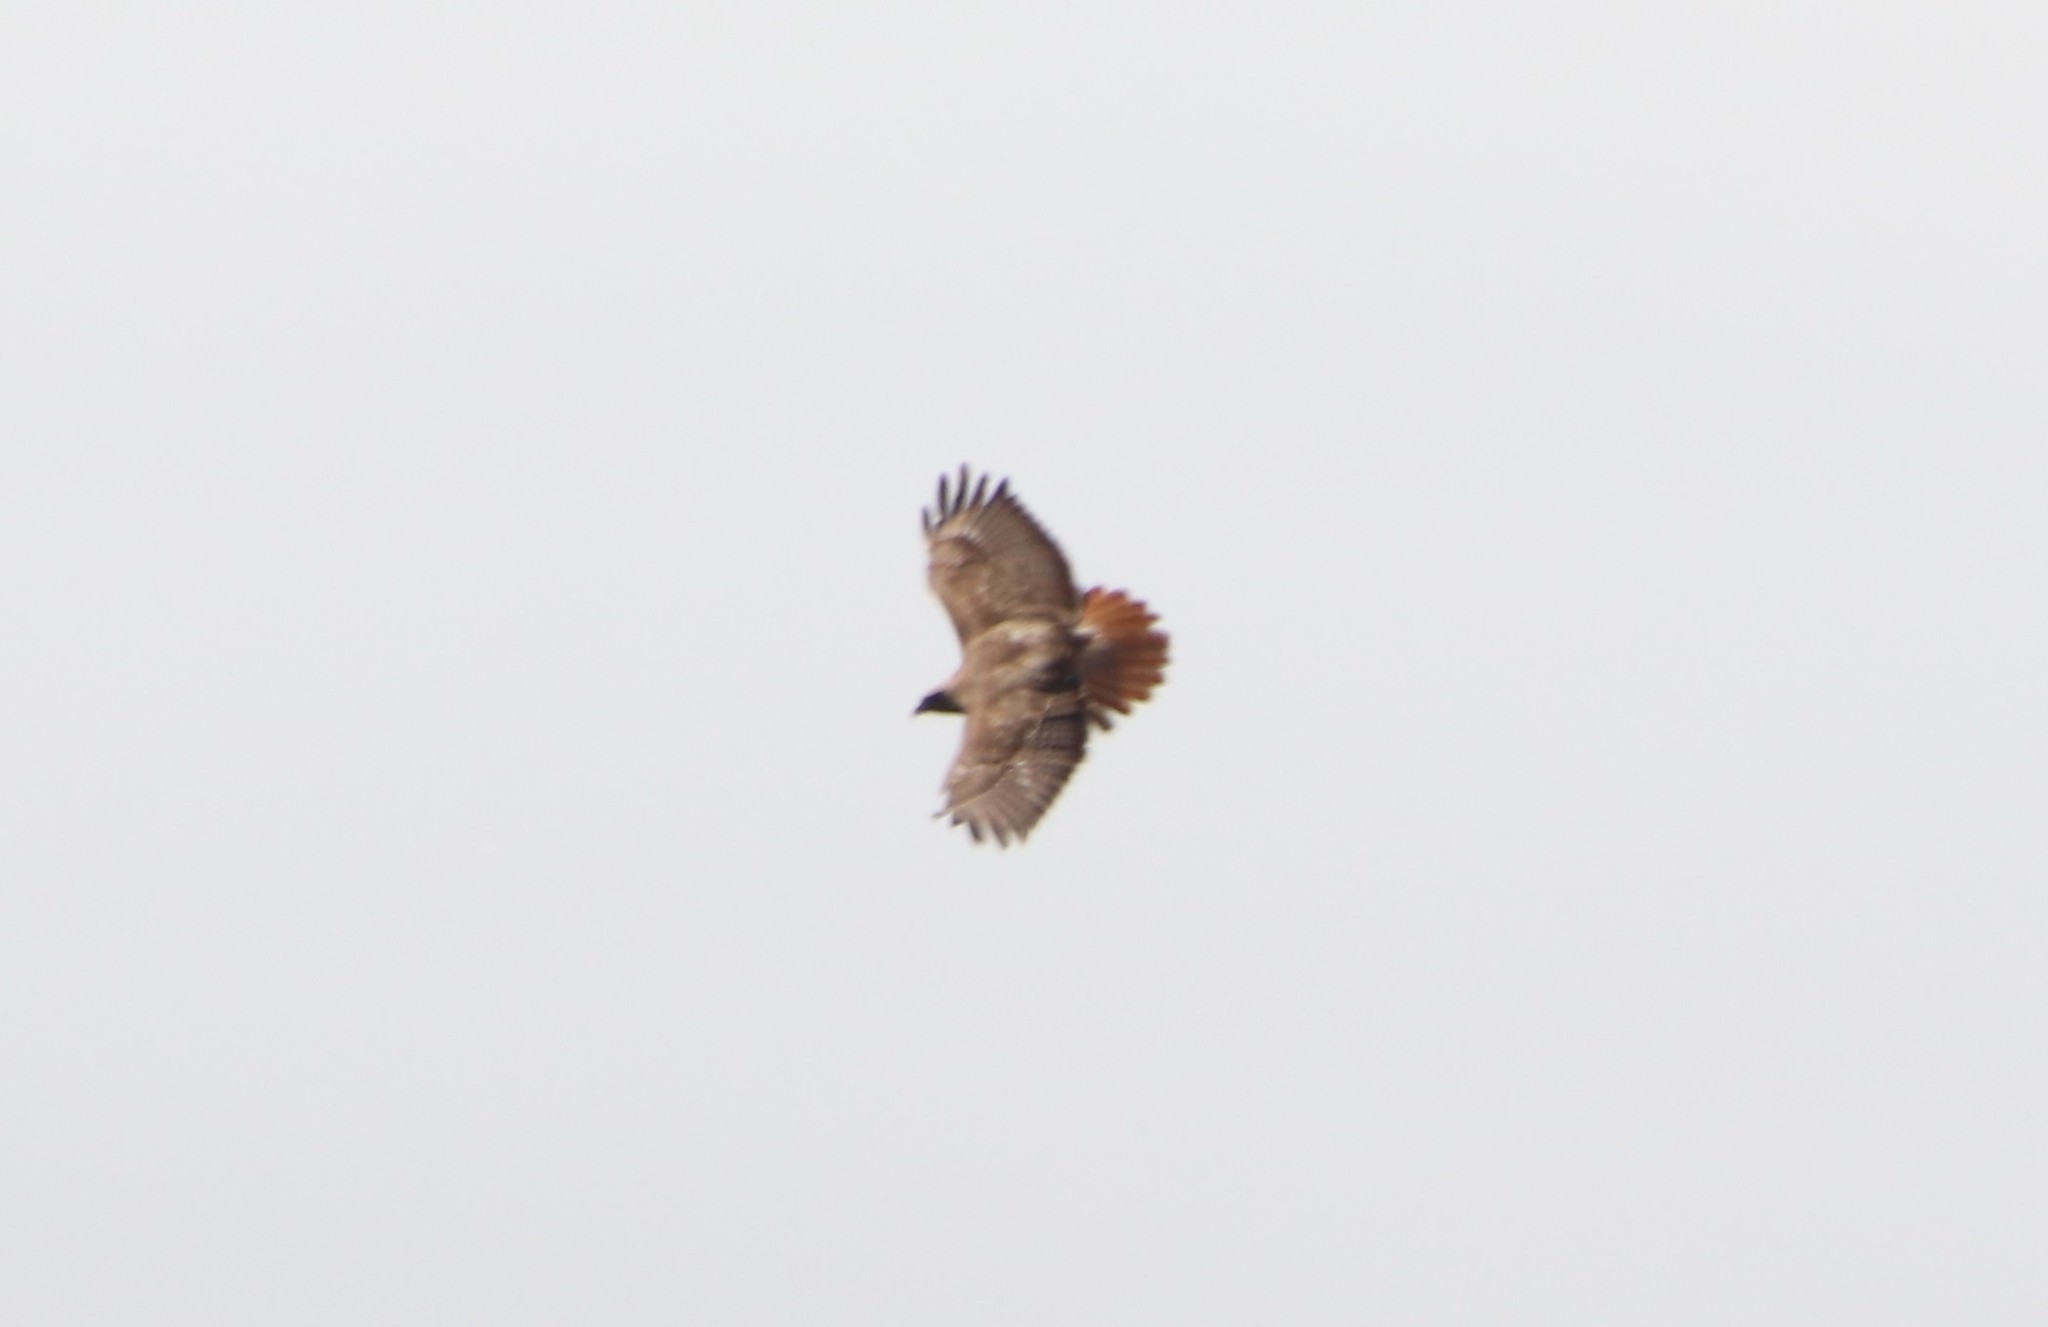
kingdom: Animalia
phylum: Chordata
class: Aves
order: Accipitriformes
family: Accipitridae
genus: Buteo
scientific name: Buteo jamaicensis
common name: Red-tailed hawk
